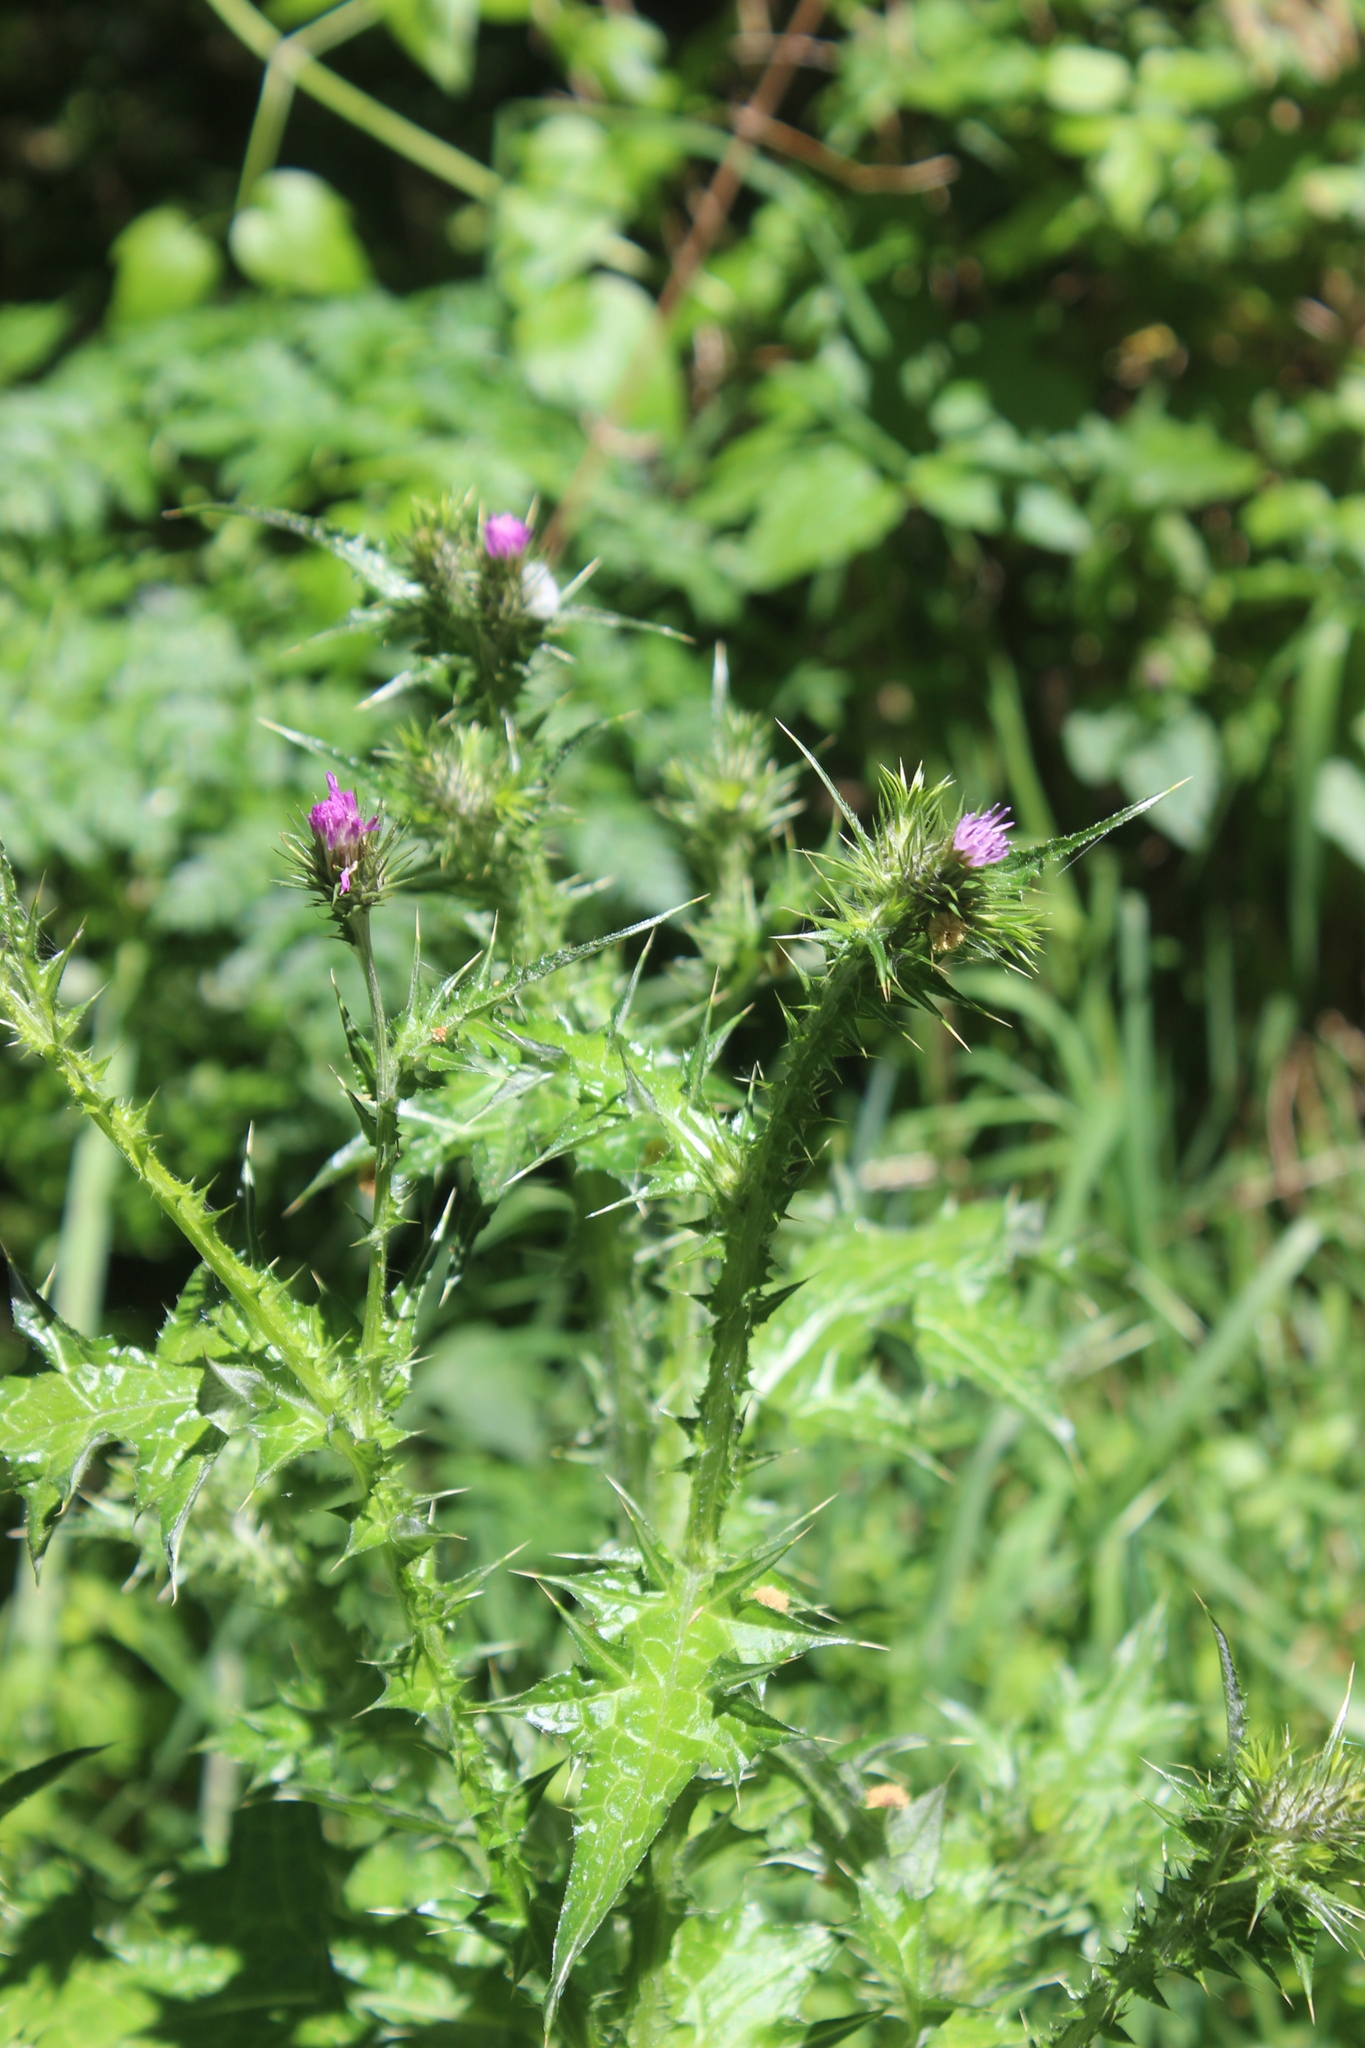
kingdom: Plantae
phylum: Tracheophyta
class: Magnoliopsida
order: Asterales
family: Asteraceae
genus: Carduus
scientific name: Carduus tenuiflorus
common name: Slender thistle
